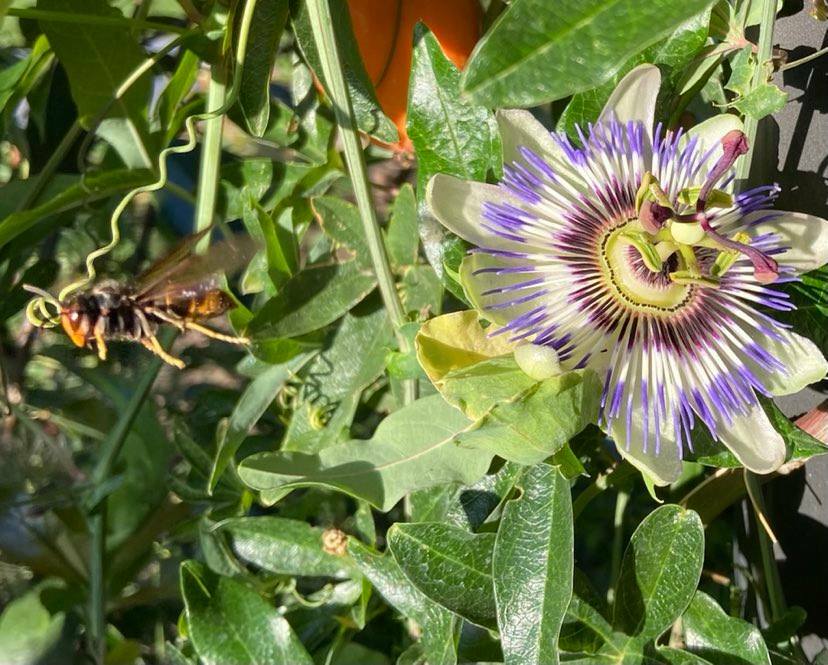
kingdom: Animalia
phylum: Arthropoda
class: Insecta
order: Hymenoptera
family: Vespidae
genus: Vespa
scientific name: Vespa velutina
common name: Asian hornet
